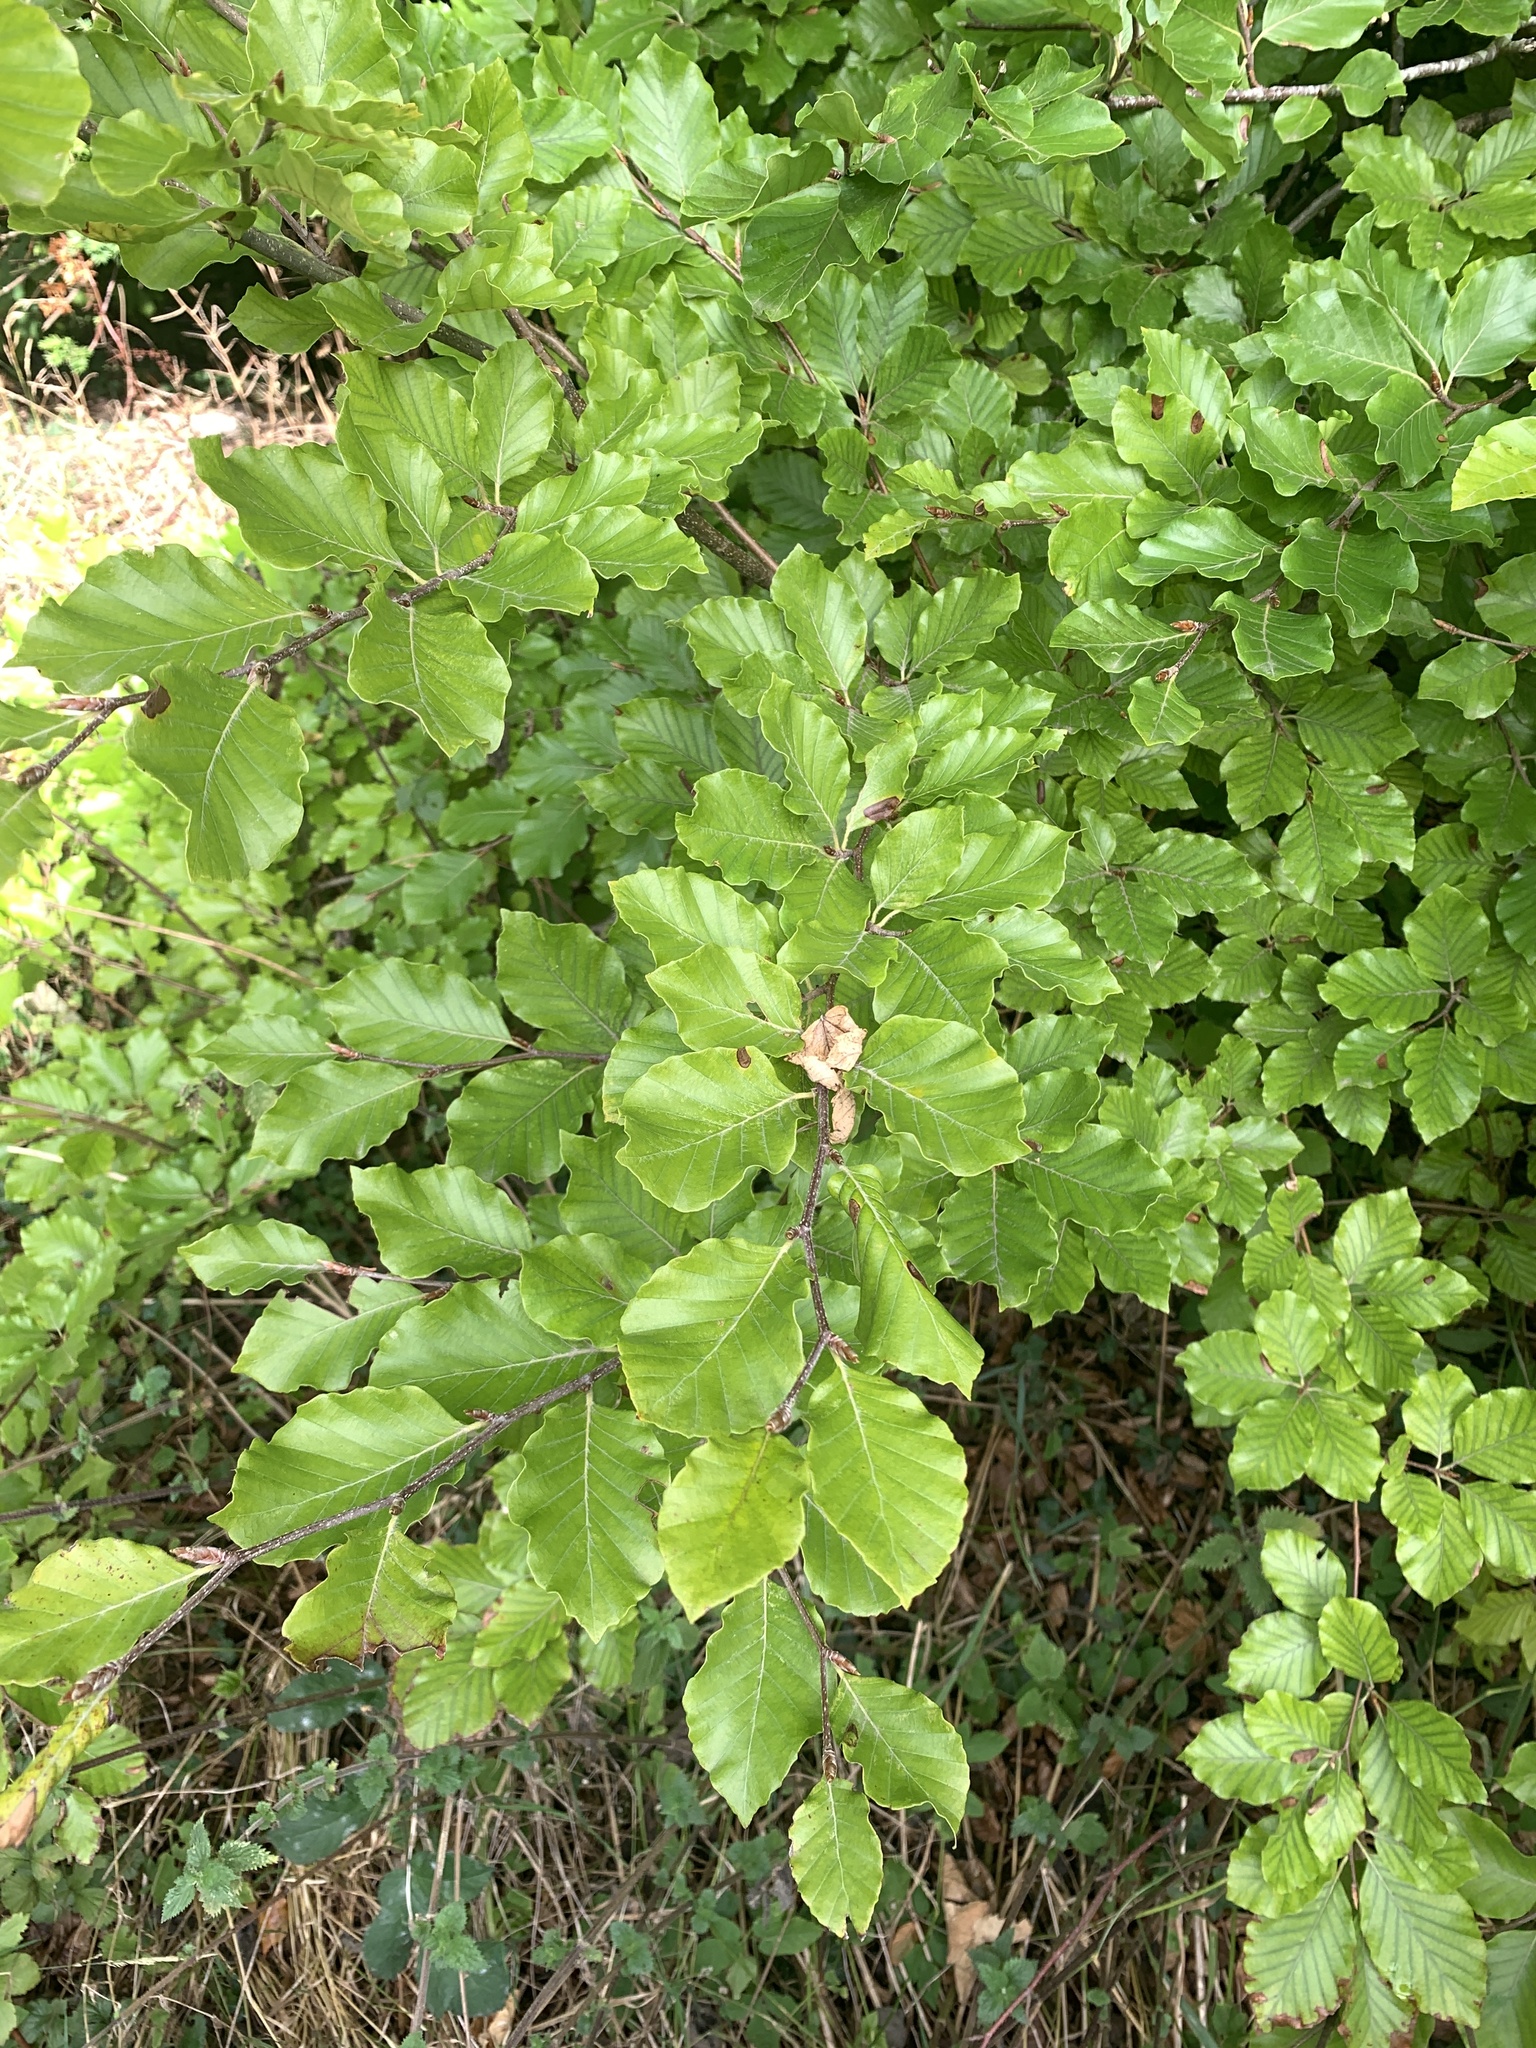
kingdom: Plantae
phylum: Tracheophyta
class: Magnoliopsida
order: Fagales
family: Fagaceae
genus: Fagus
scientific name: Fagus sylvatica
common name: Beech
